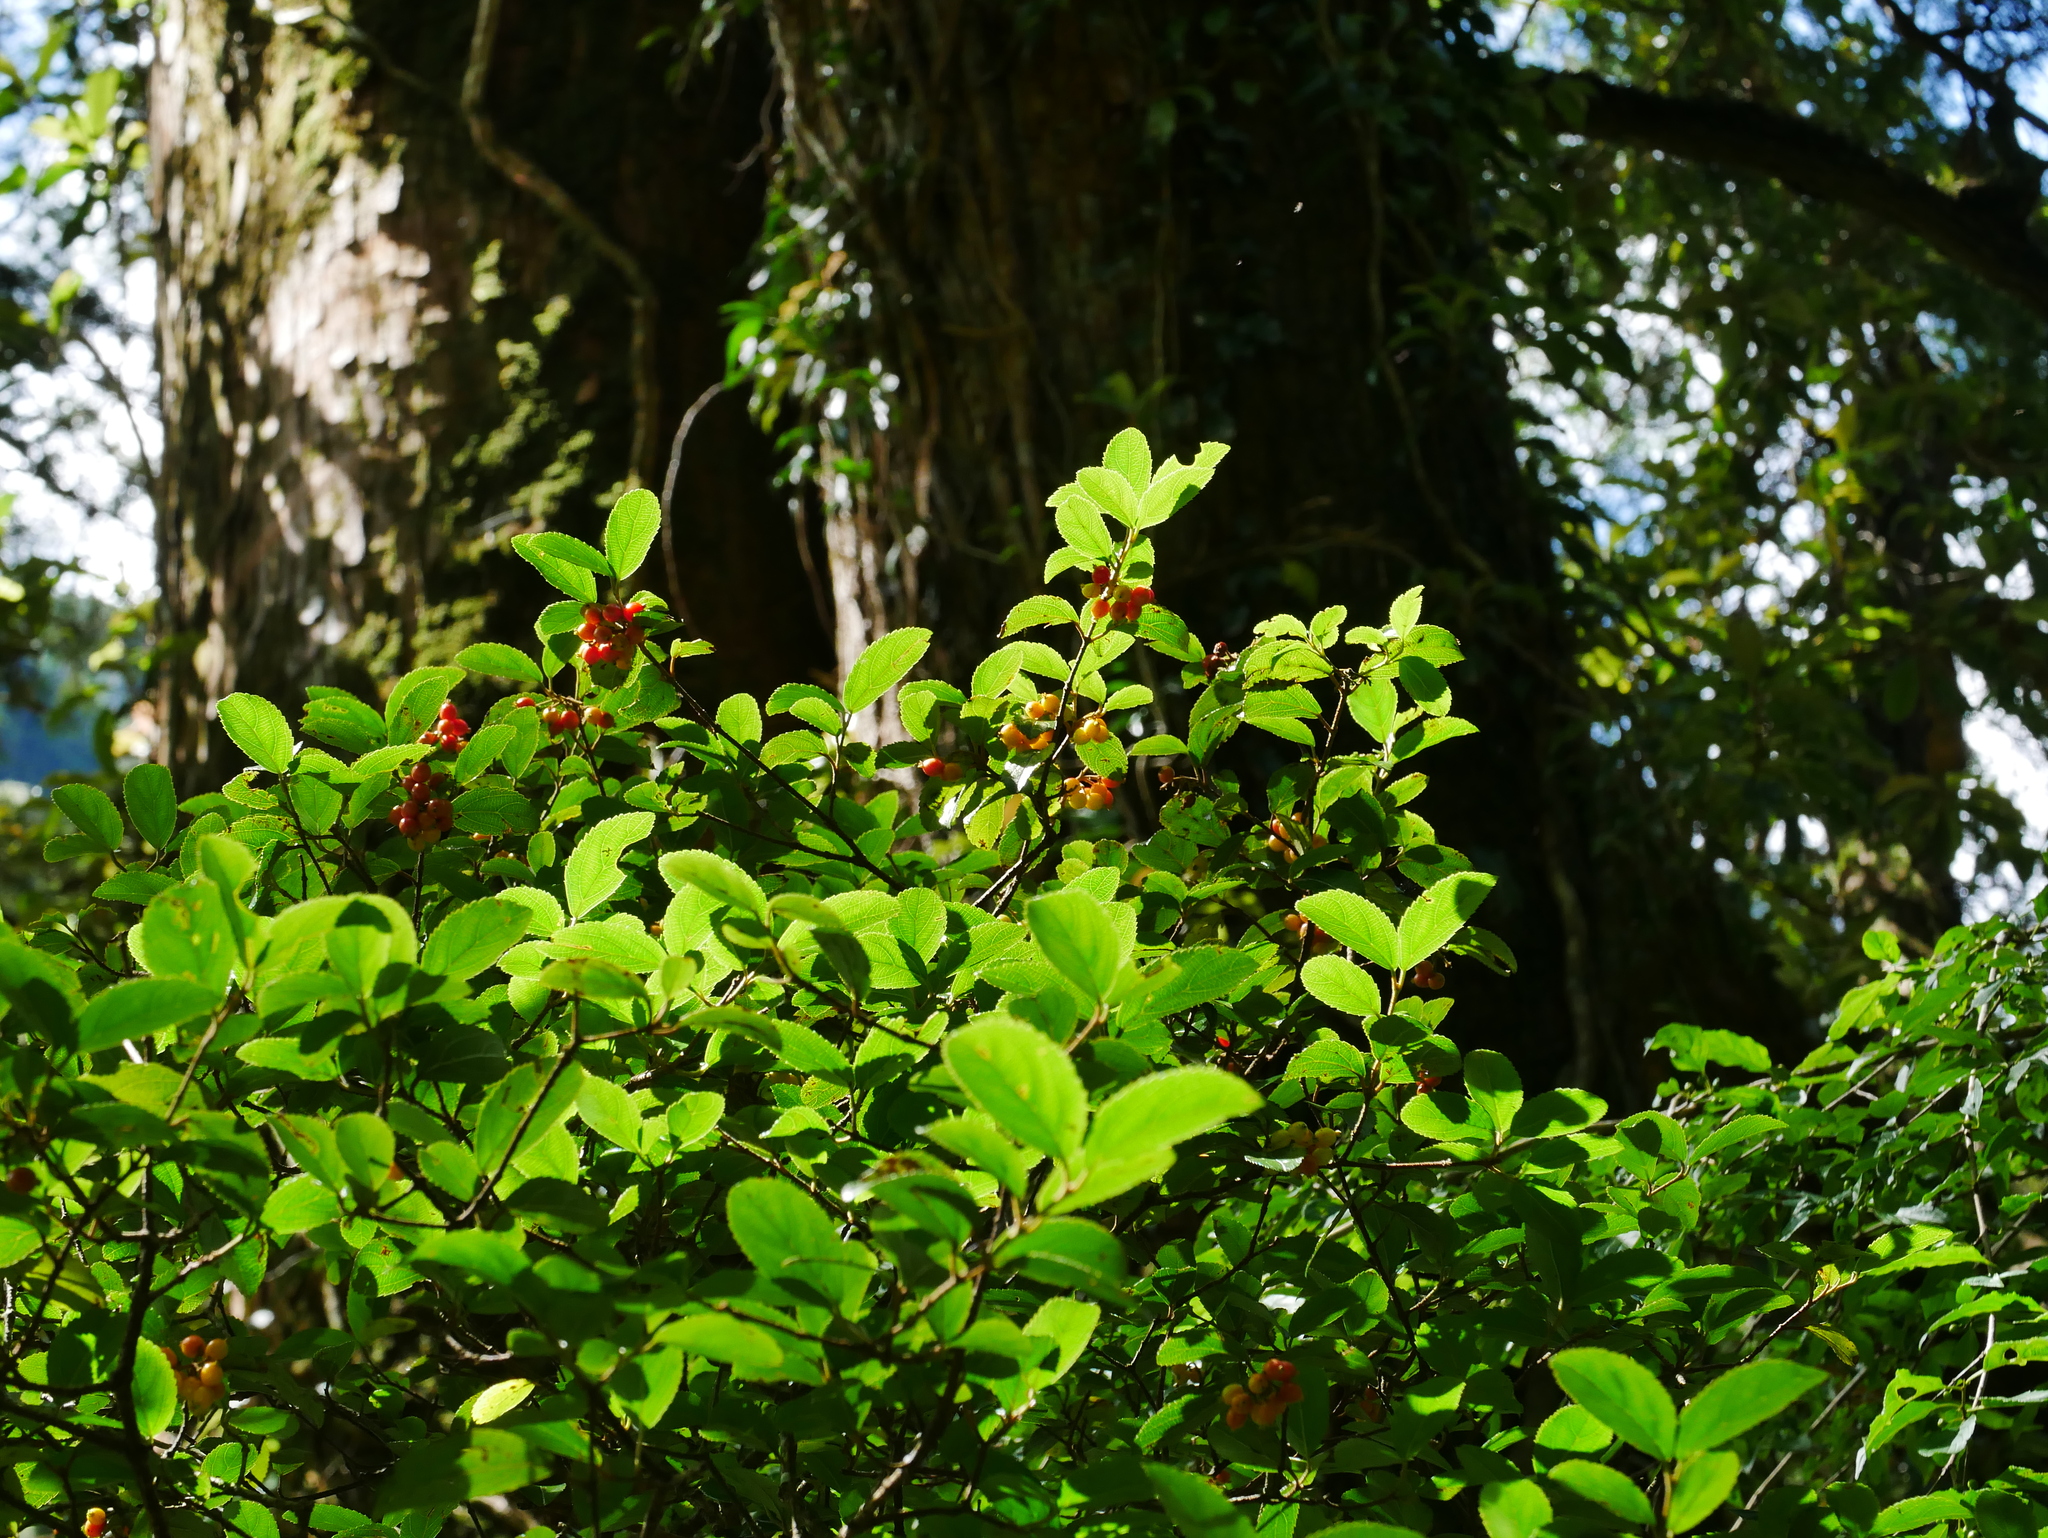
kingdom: Plantae
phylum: Tracheophyta
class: Magnoliopsida
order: Dipsacales
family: Viburnaceae
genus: Viburnum
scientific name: Viburnum taitoense
